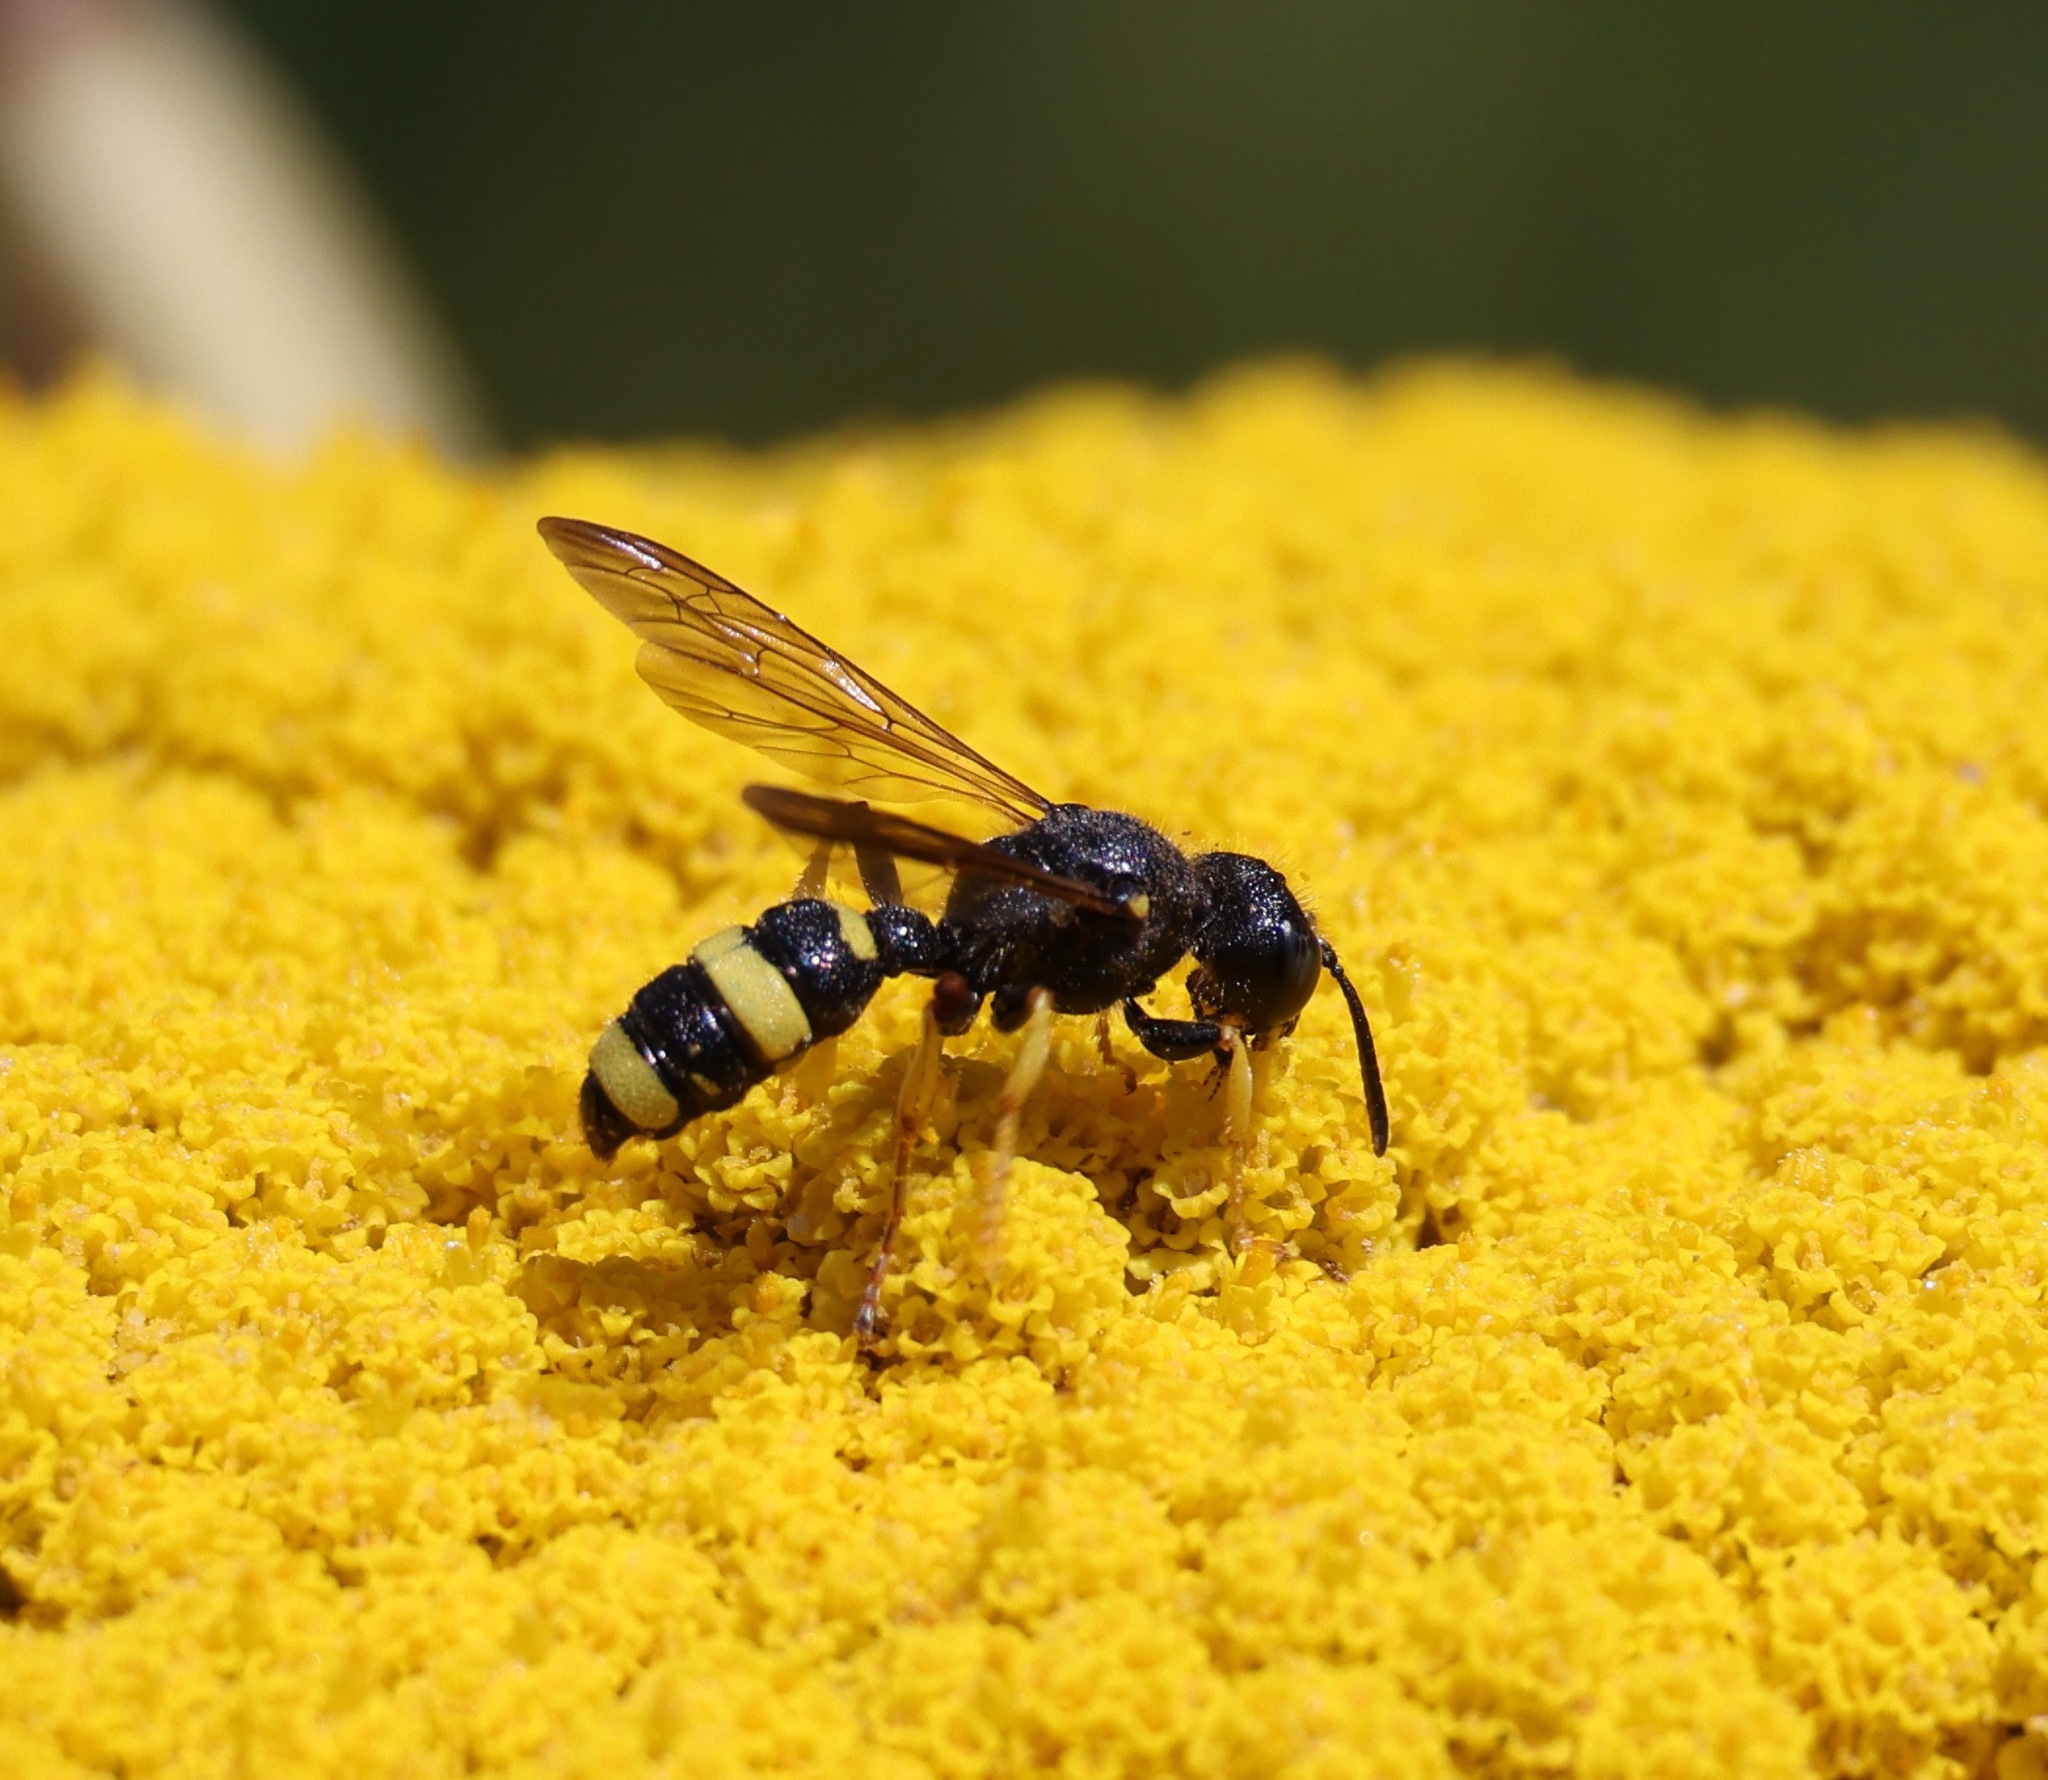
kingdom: Animalia
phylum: Arthropoda
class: Insecta
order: Hymenoptera
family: Crabronidae
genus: Cerceris
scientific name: Cerceris rybyensis
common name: Ornate tailed digger wasp
